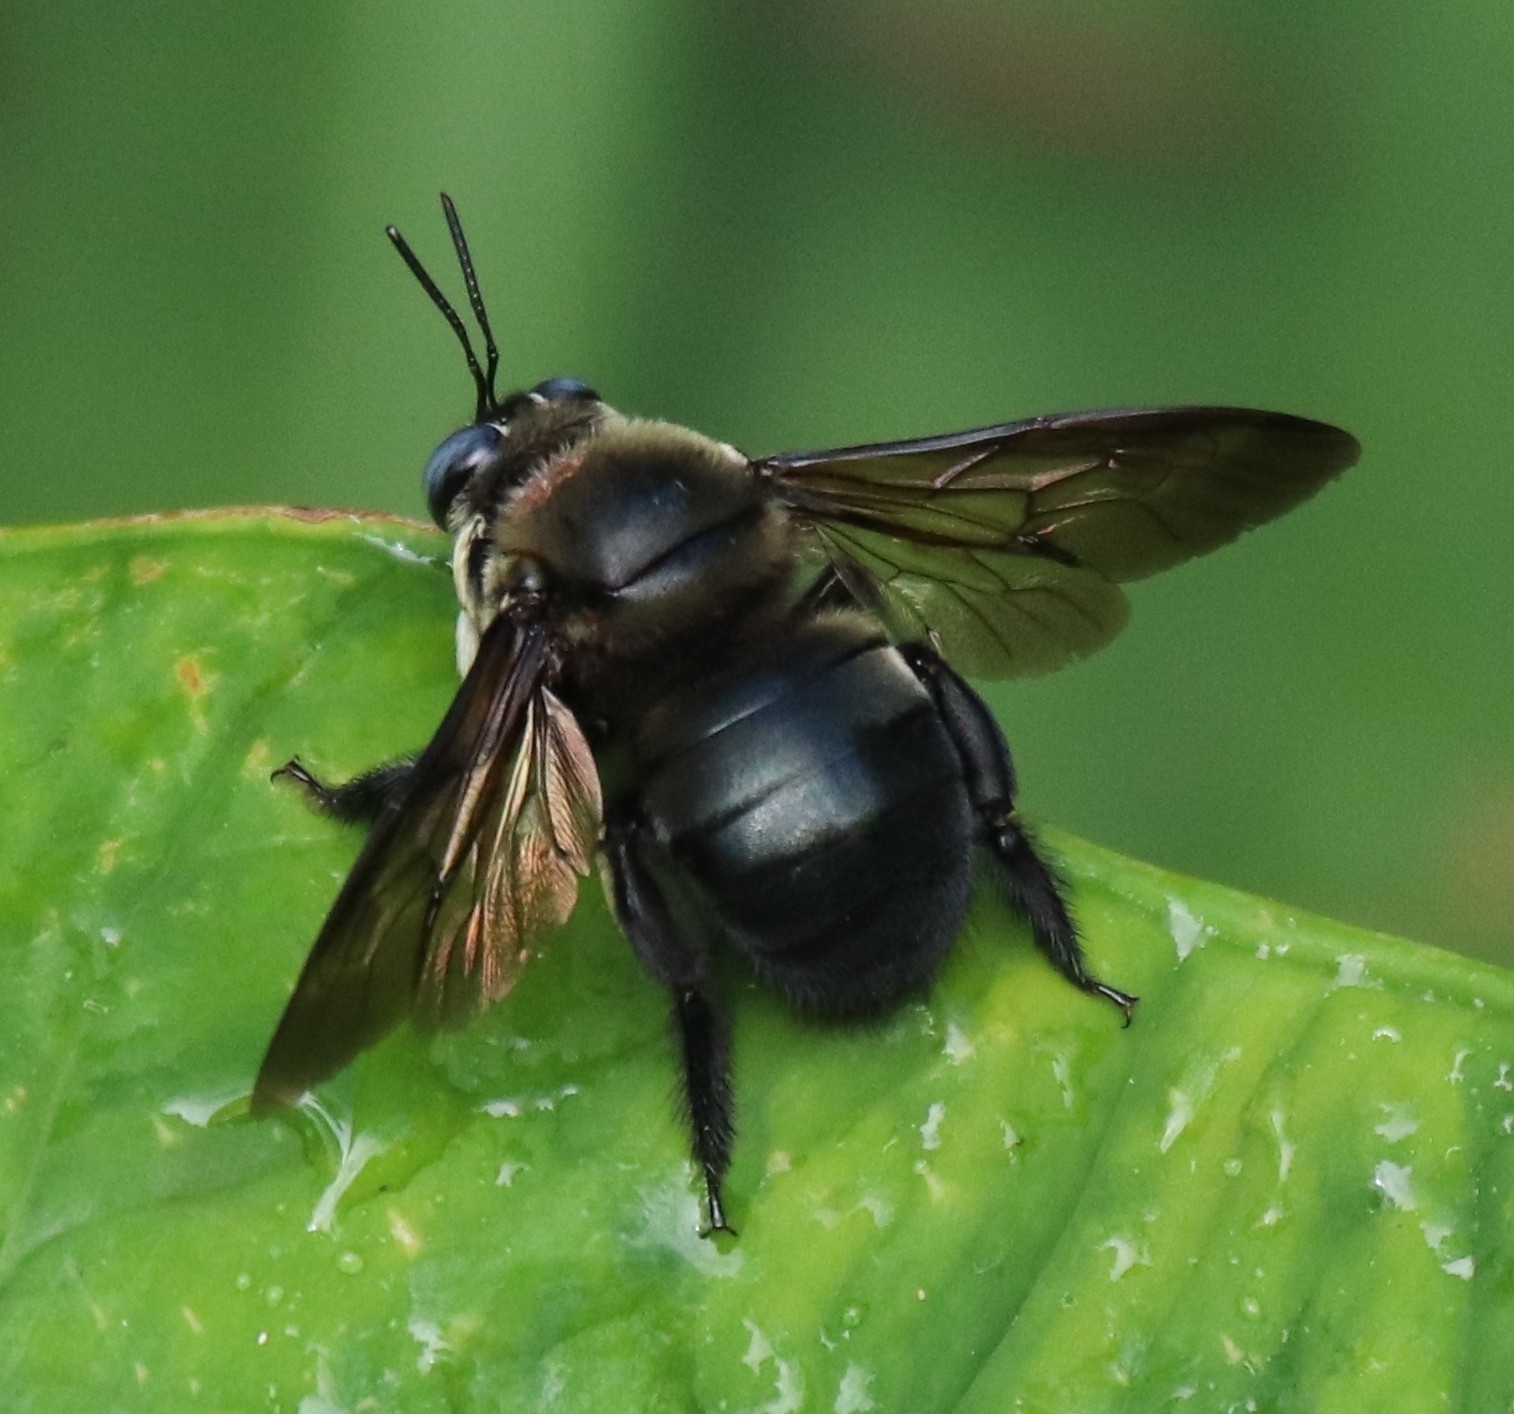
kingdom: Animalia
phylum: Arthropoda
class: Insecta
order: Hymenoptera
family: Apidae
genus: Xylocopa
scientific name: Xylocopa dejeanii
